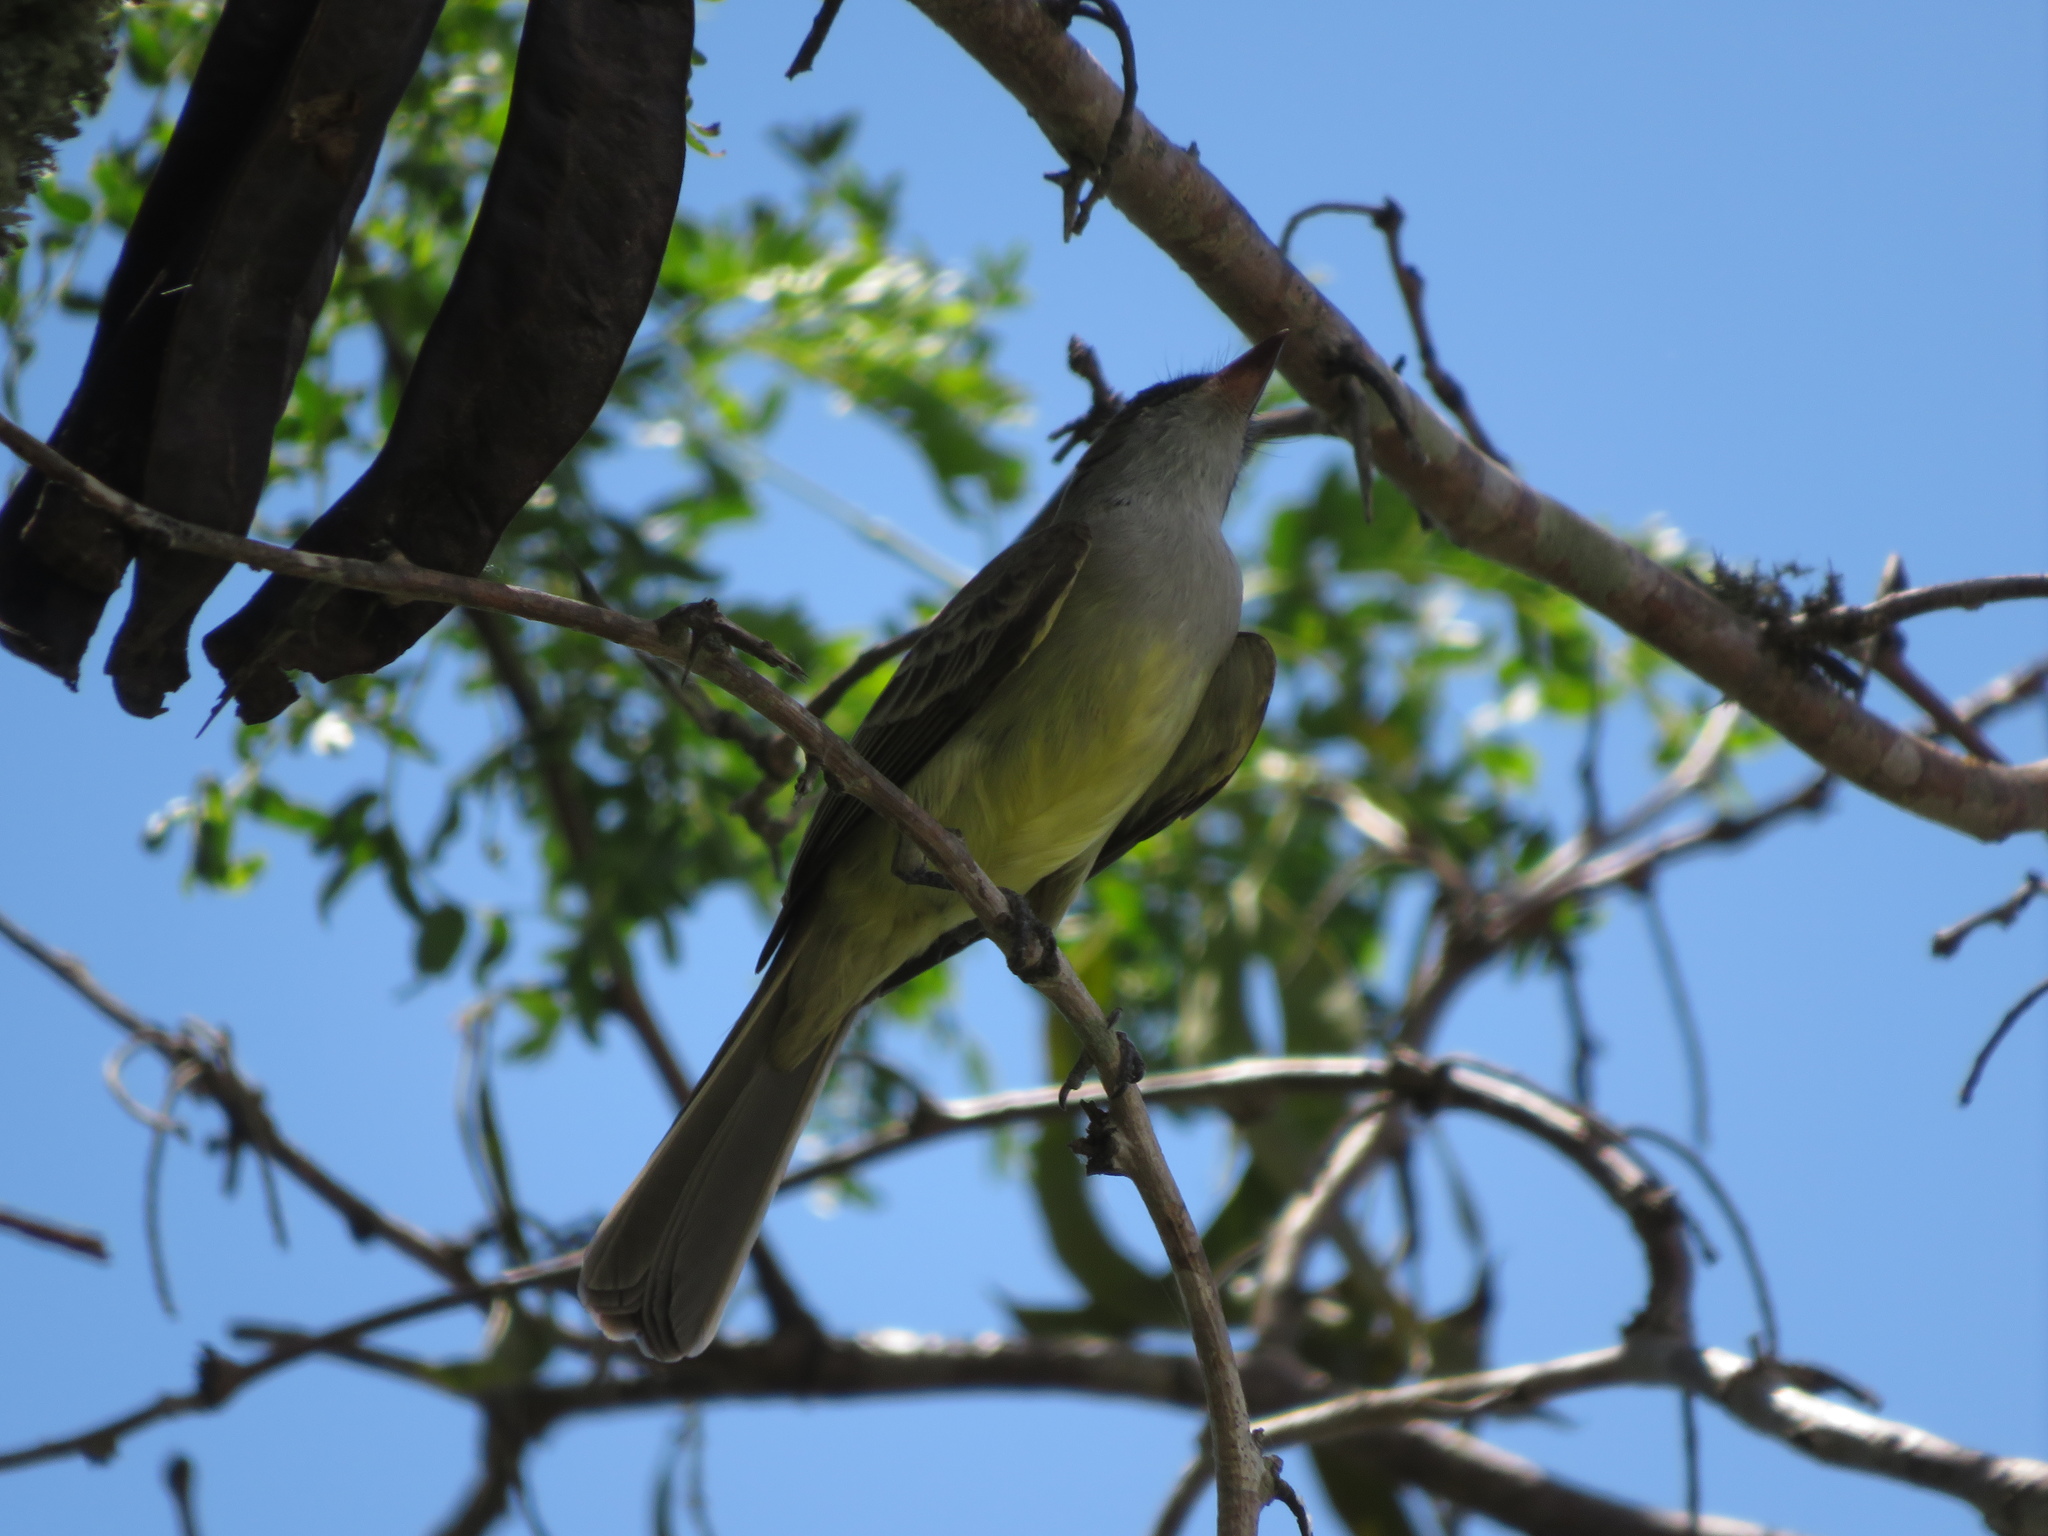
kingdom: Animalia
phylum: Chordata
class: Aves
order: Passeriformes
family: Tyrannidae
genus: Myiarchus
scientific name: Myiarchus swainsoni
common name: Swainson's flycatcher
